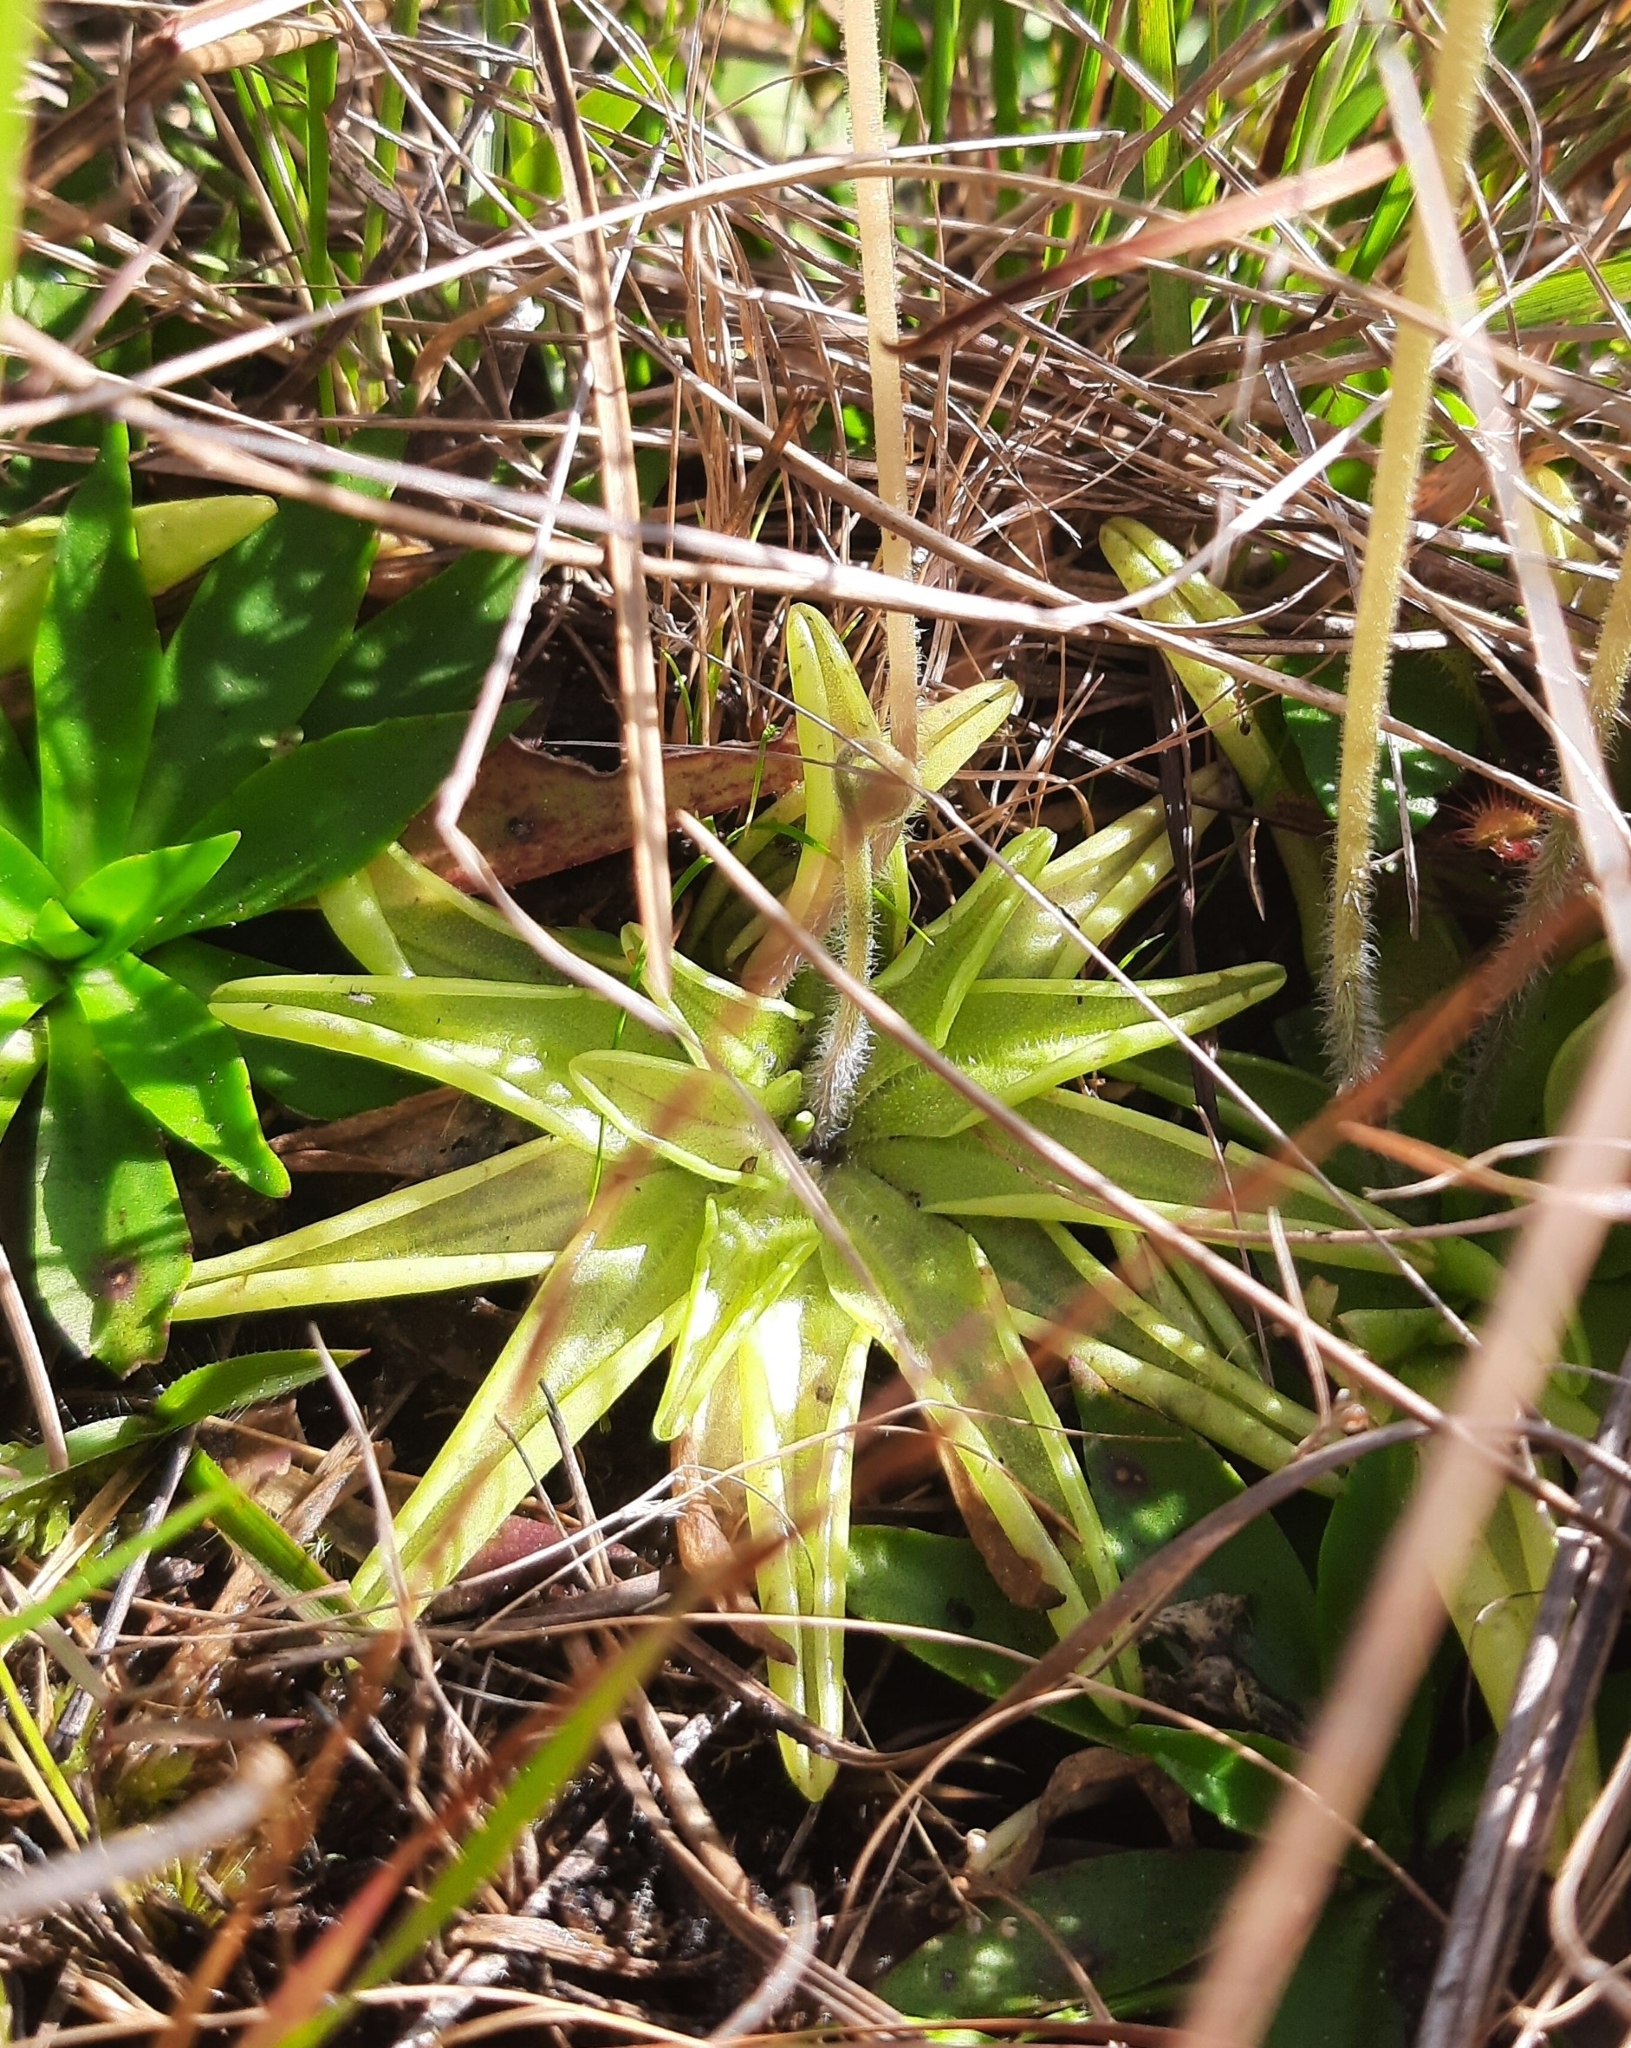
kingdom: Plantae
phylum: Tracheophyta
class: Magnoliopsida
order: Lamiales
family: Lentibulariaceae
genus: Pinguicula
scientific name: Pinguicula caerulea
